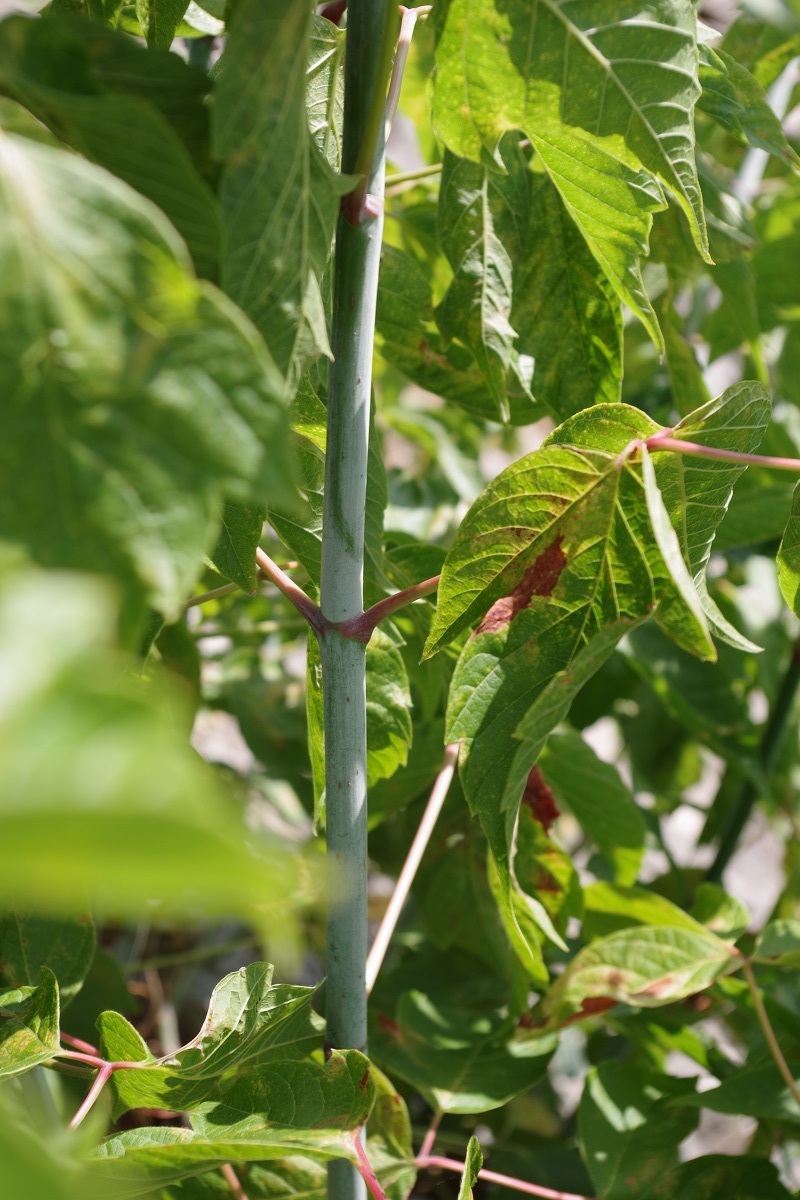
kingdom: Plantae
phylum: Tracheophyta
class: Magnoliopsida
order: Sapindales
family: Sapindaceae
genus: Acer
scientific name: Acer negundo
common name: Ashleaf maple
